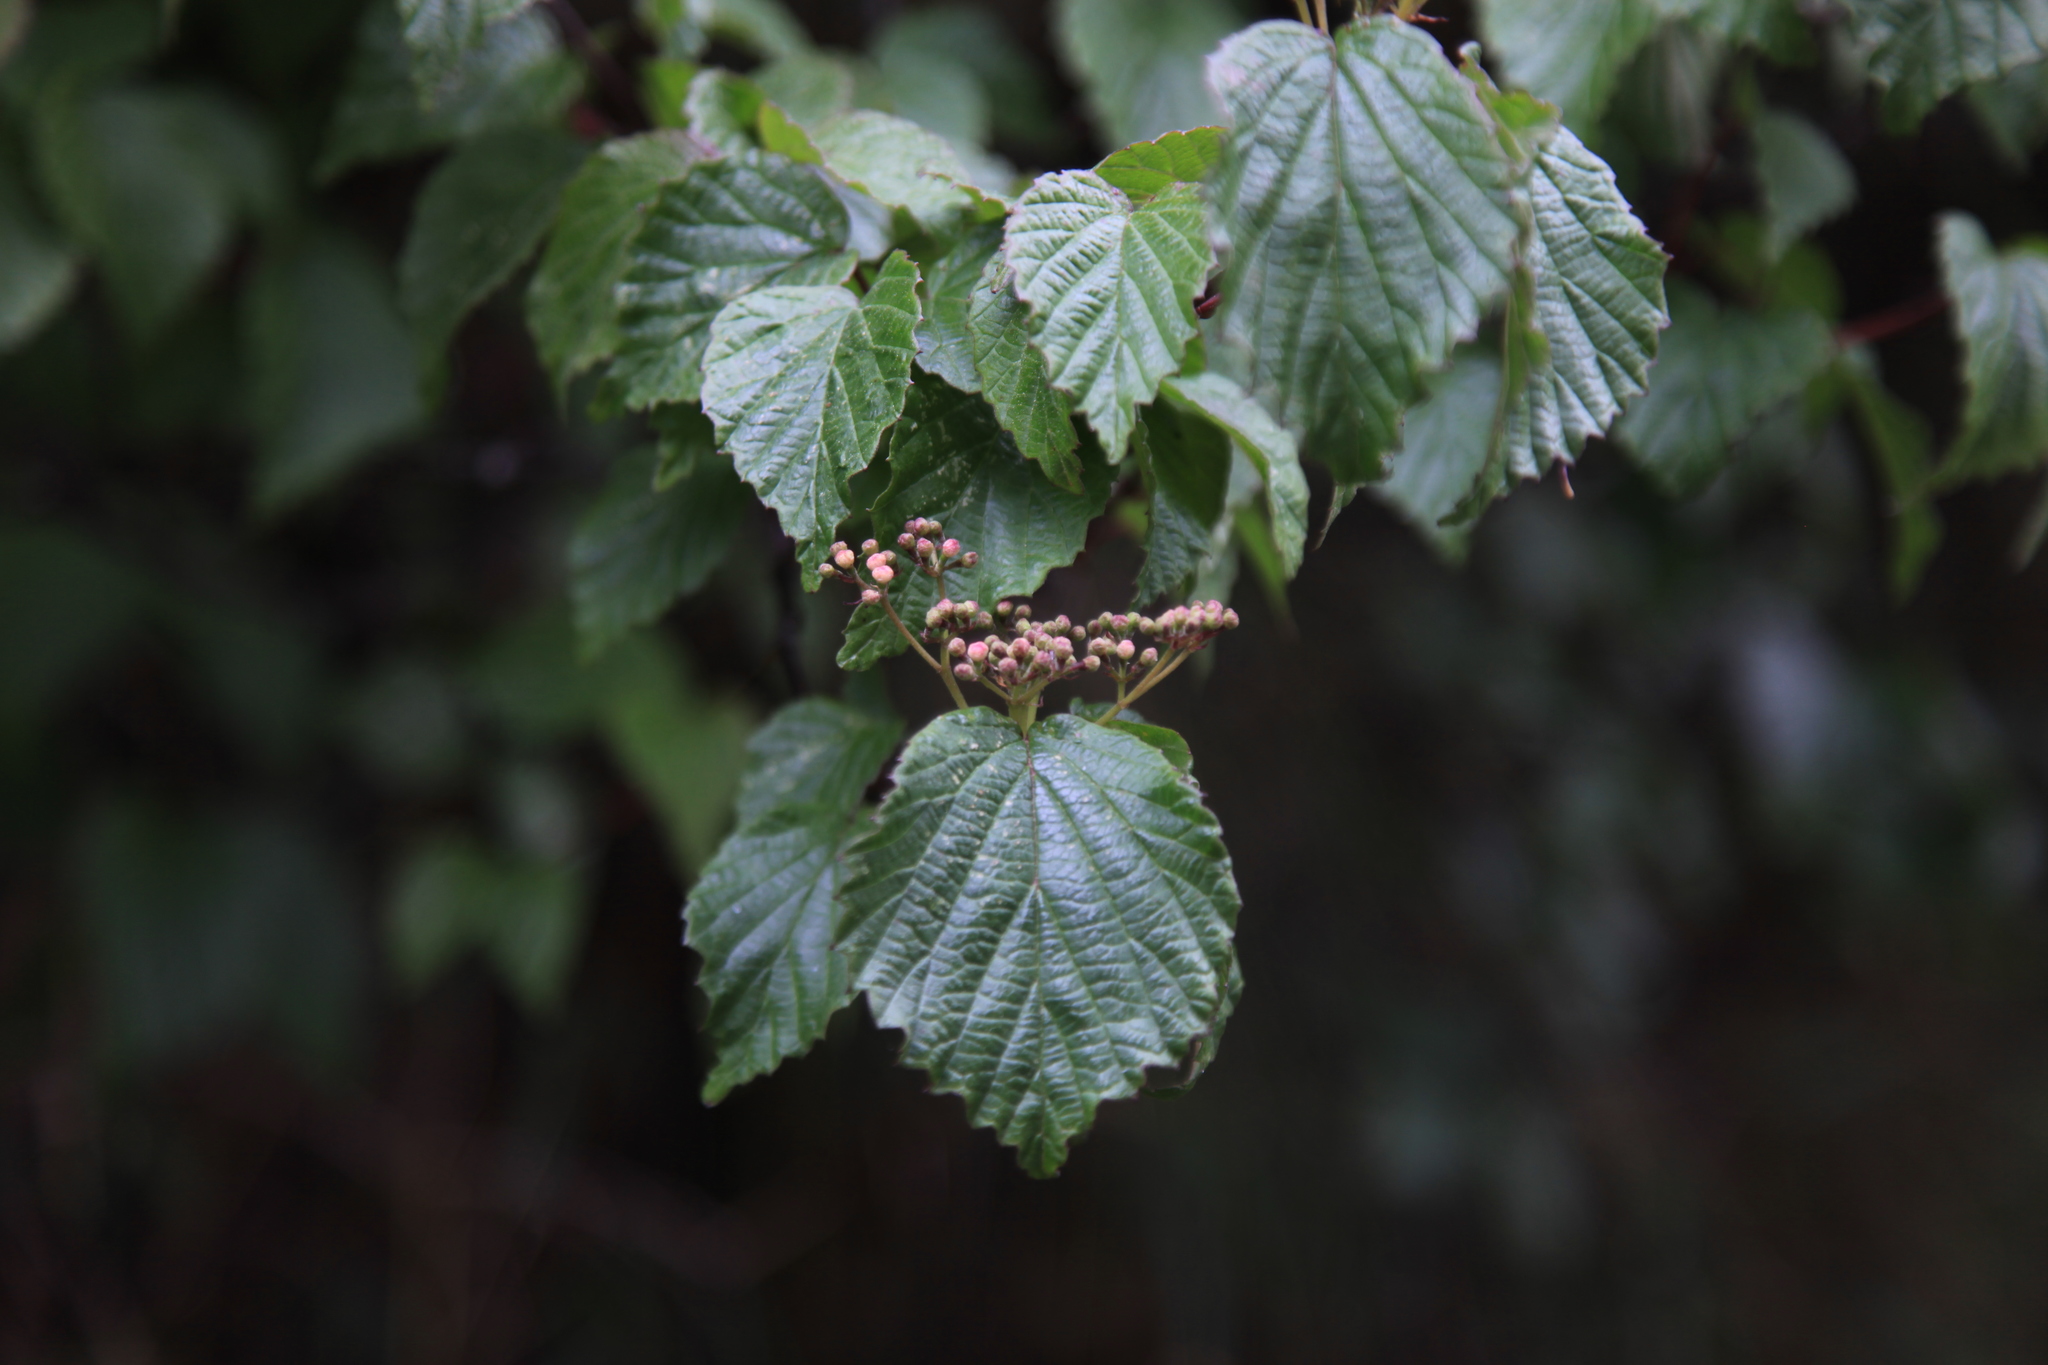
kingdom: Plantae
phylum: Tracheophyta
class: Magnoliopsida
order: Dipsacales
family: Viburnaceae
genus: Viburnum
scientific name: Viburnum betulifolium
